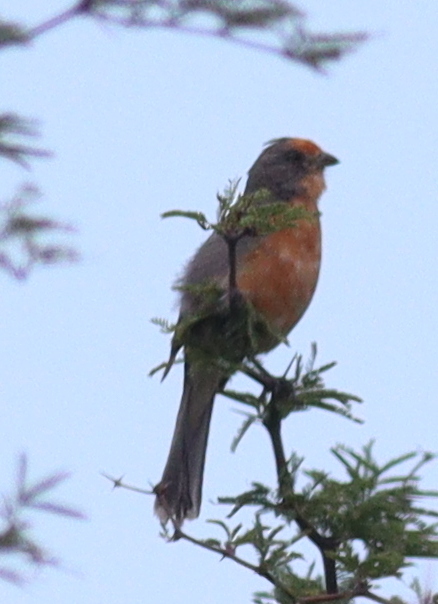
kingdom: Animalia
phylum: Chordata
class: Aves
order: Passeriformes
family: Cotingidae
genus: Phytotoma
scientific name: Phytotoma rutila
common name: White-tipped plantcutter
